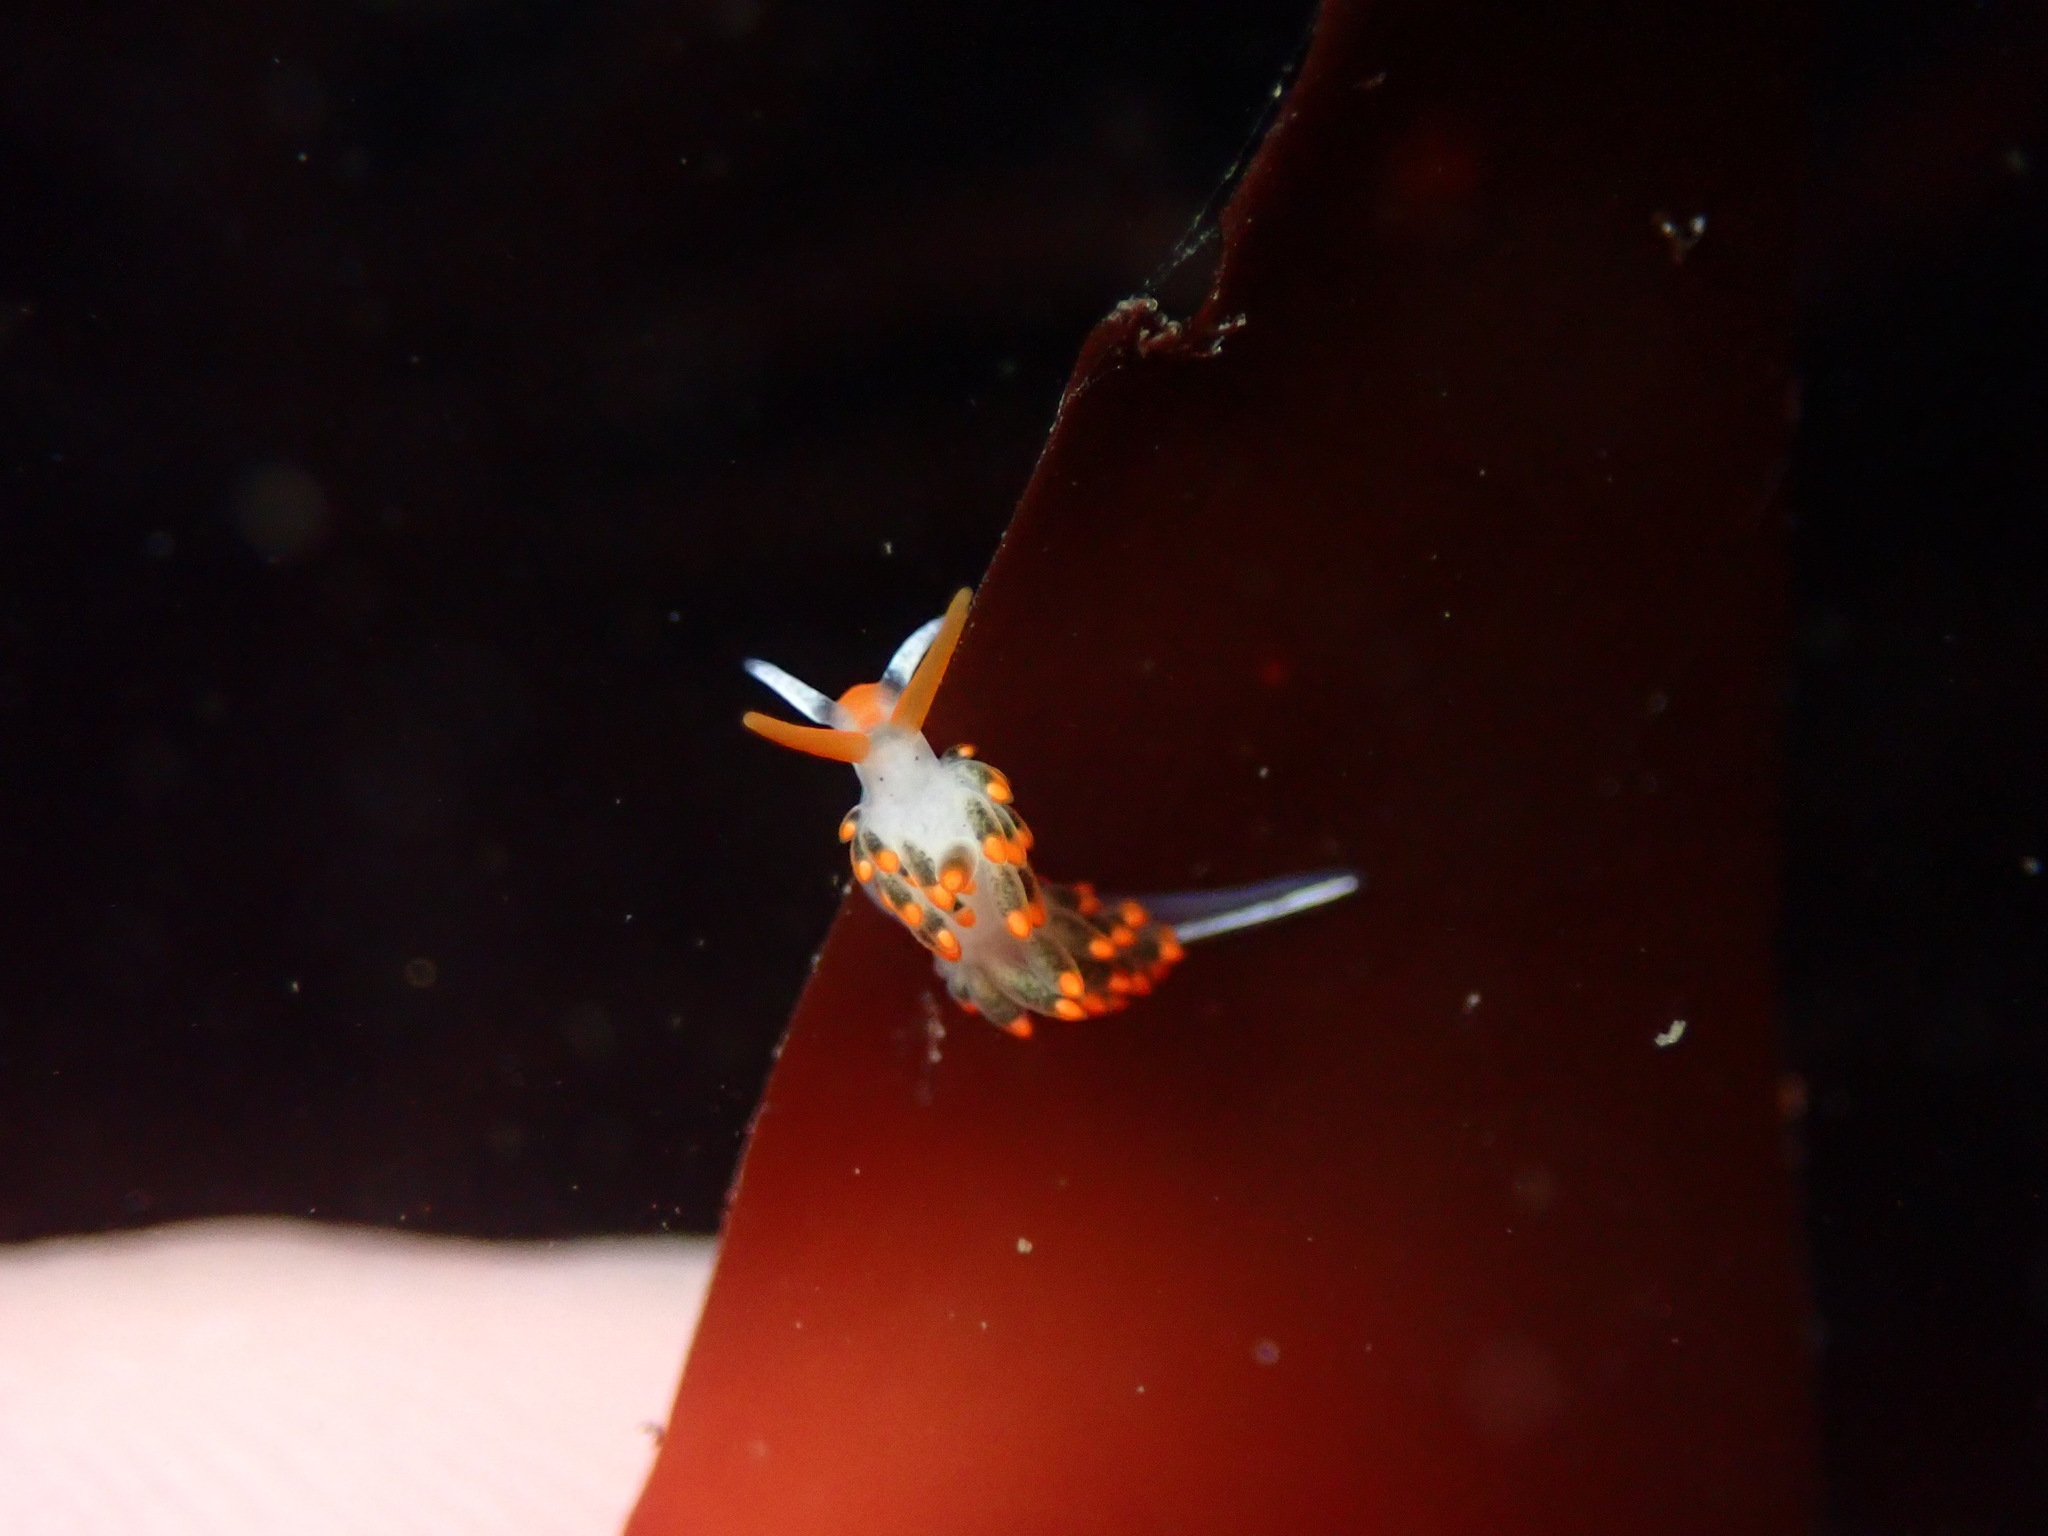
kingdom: Animalia
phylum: Mollusca
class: Gastropoda
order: Nudibranchia
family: Trinchesiidae
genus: Diaphoreolis
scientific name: Diaphoreolis lagunae
